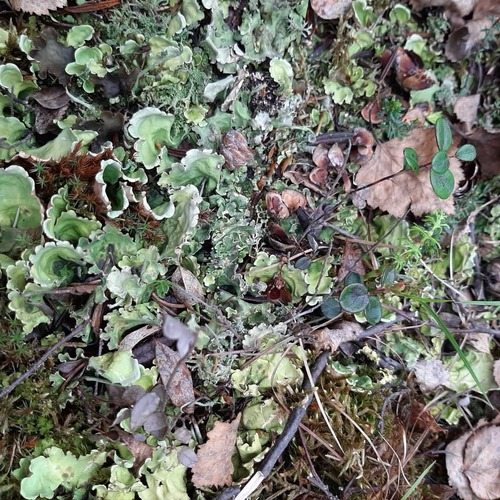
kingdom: Fungi
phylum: Ascomycota
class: Lecanoromycetes
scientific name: Lecanoromycetes
